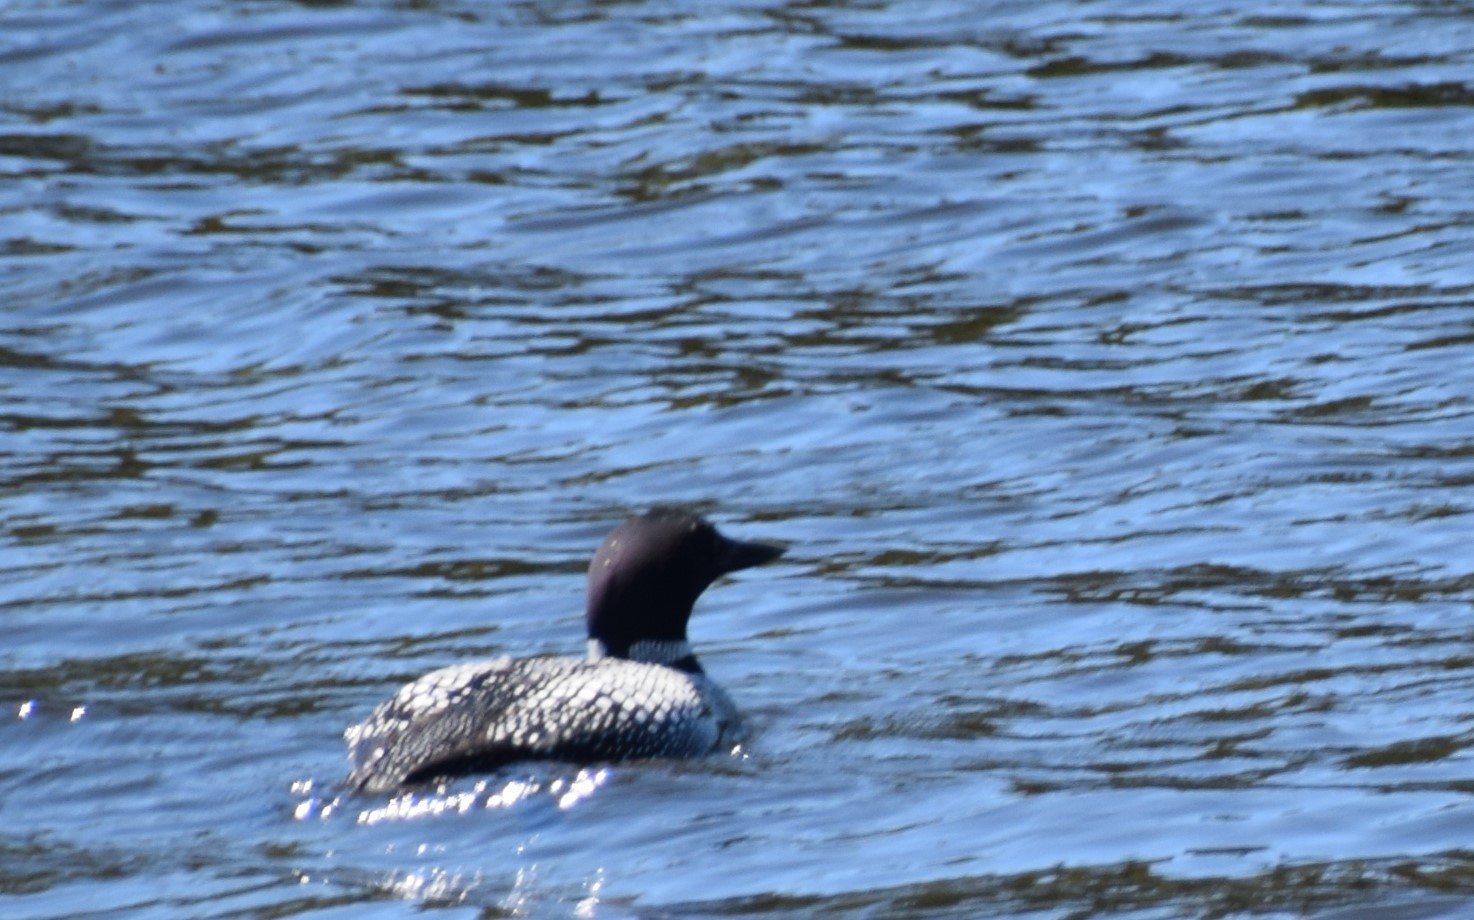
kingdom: Animalia
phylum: Chordata
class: Aves
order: Gaviiformes
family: Gaviidae
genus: Gavia
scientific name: Gavia immer
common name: Common loon
